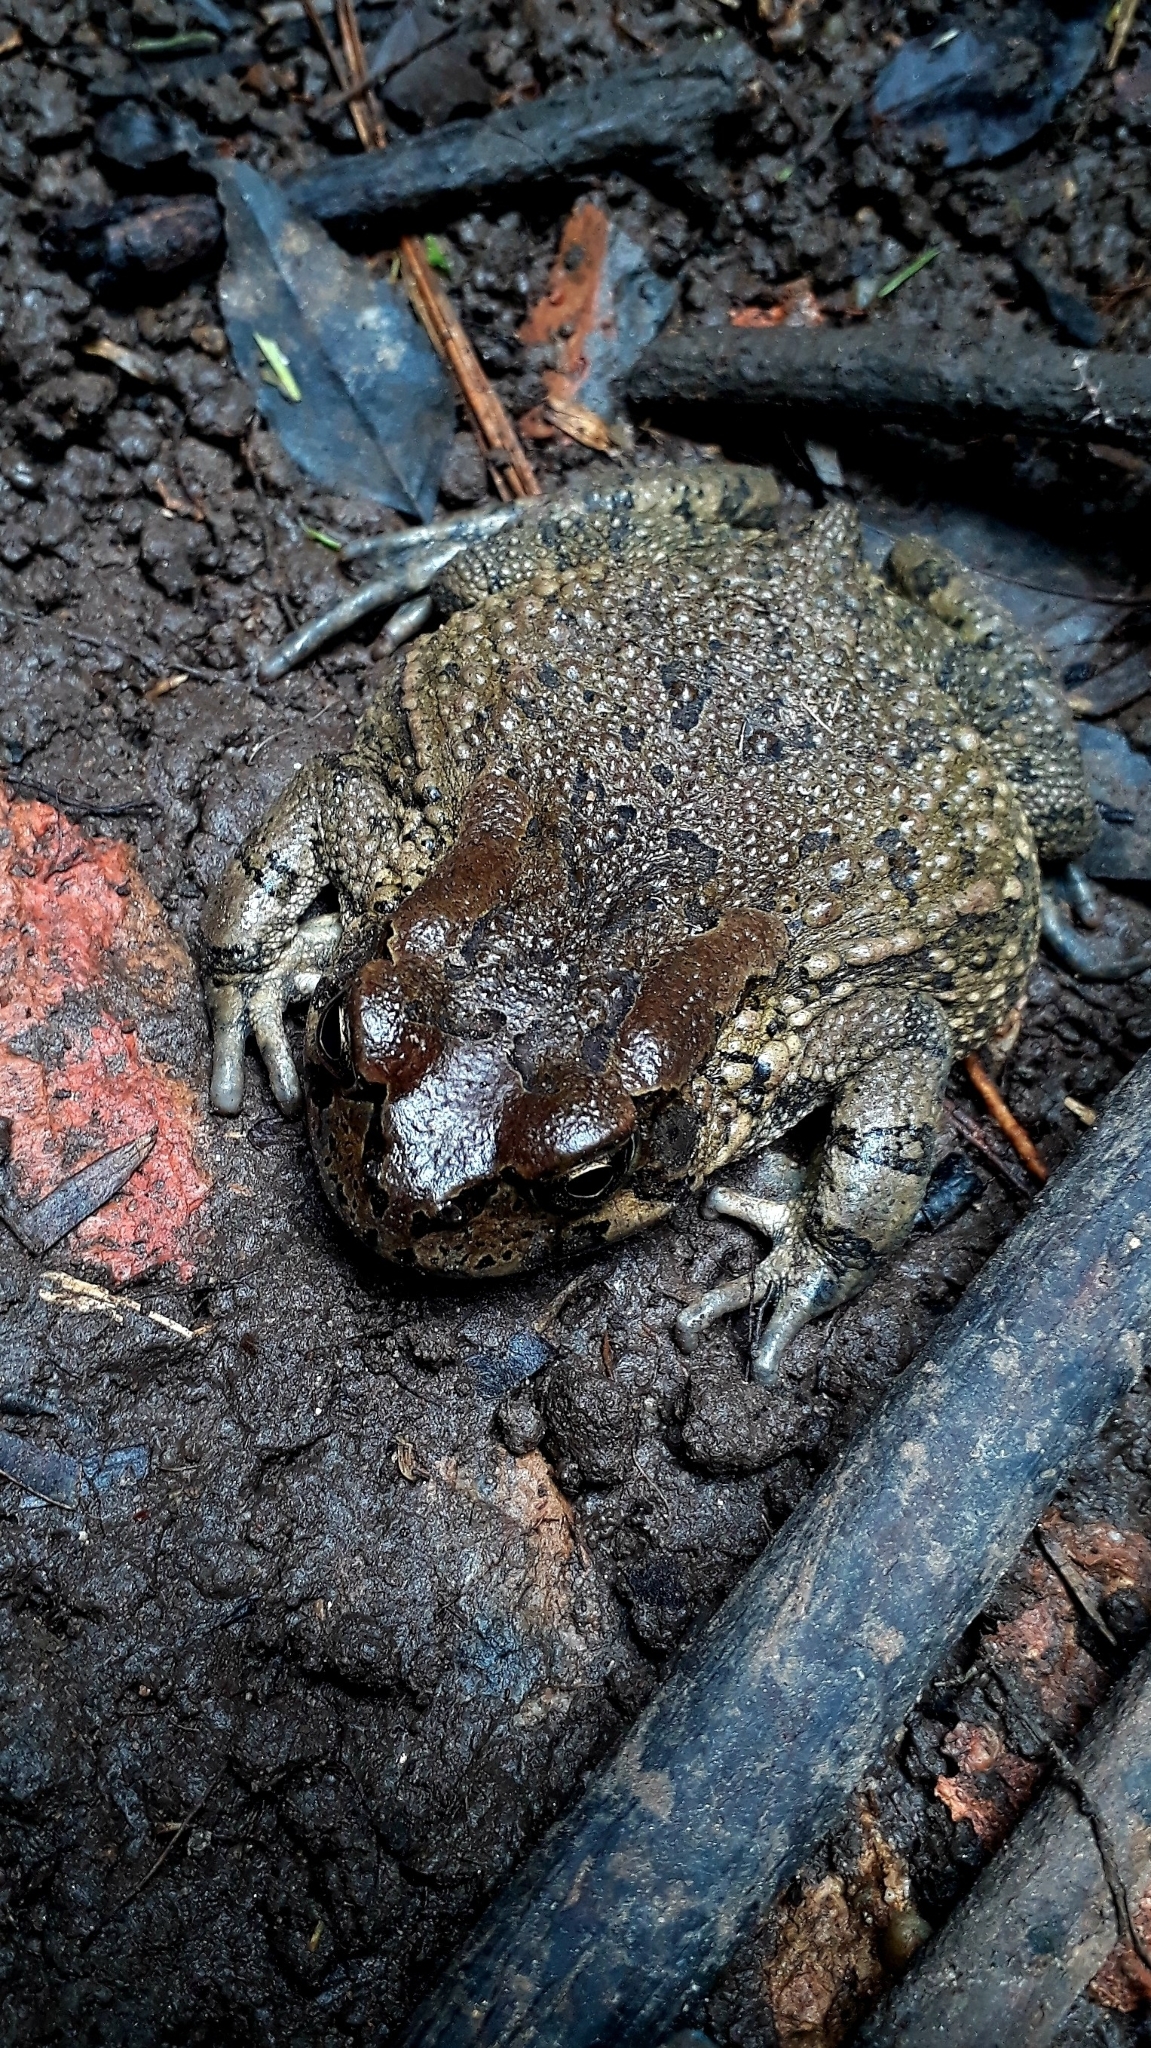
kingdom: Animalia
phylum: Chordata
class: Amphibia
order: Anura
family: Bufonidae
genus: Sclerophrys
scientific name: Sclerophrys capensis
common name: Ranger’s toad
